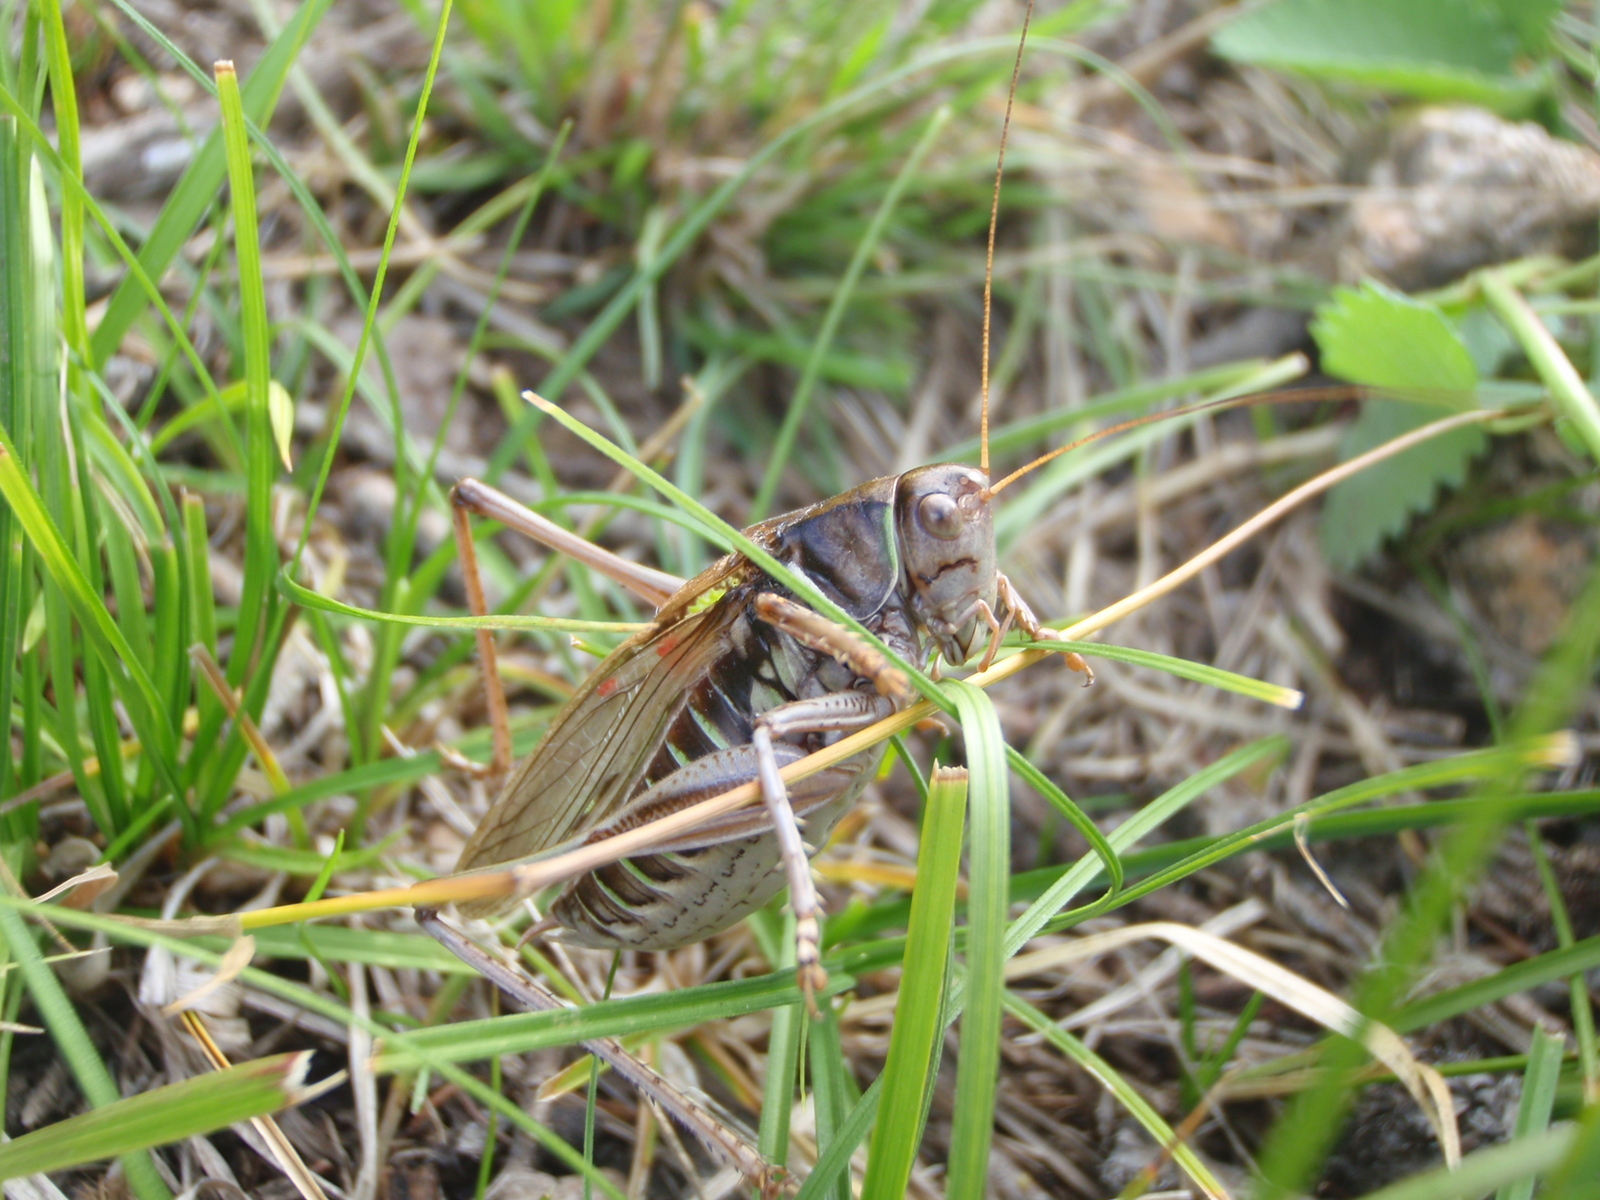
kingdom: Animalia
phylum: Arthropoda
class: Insecta
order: Orthoptera
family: Tettigoniidae
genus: Gampsocleis
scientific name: Gampsocleis sedakovii
